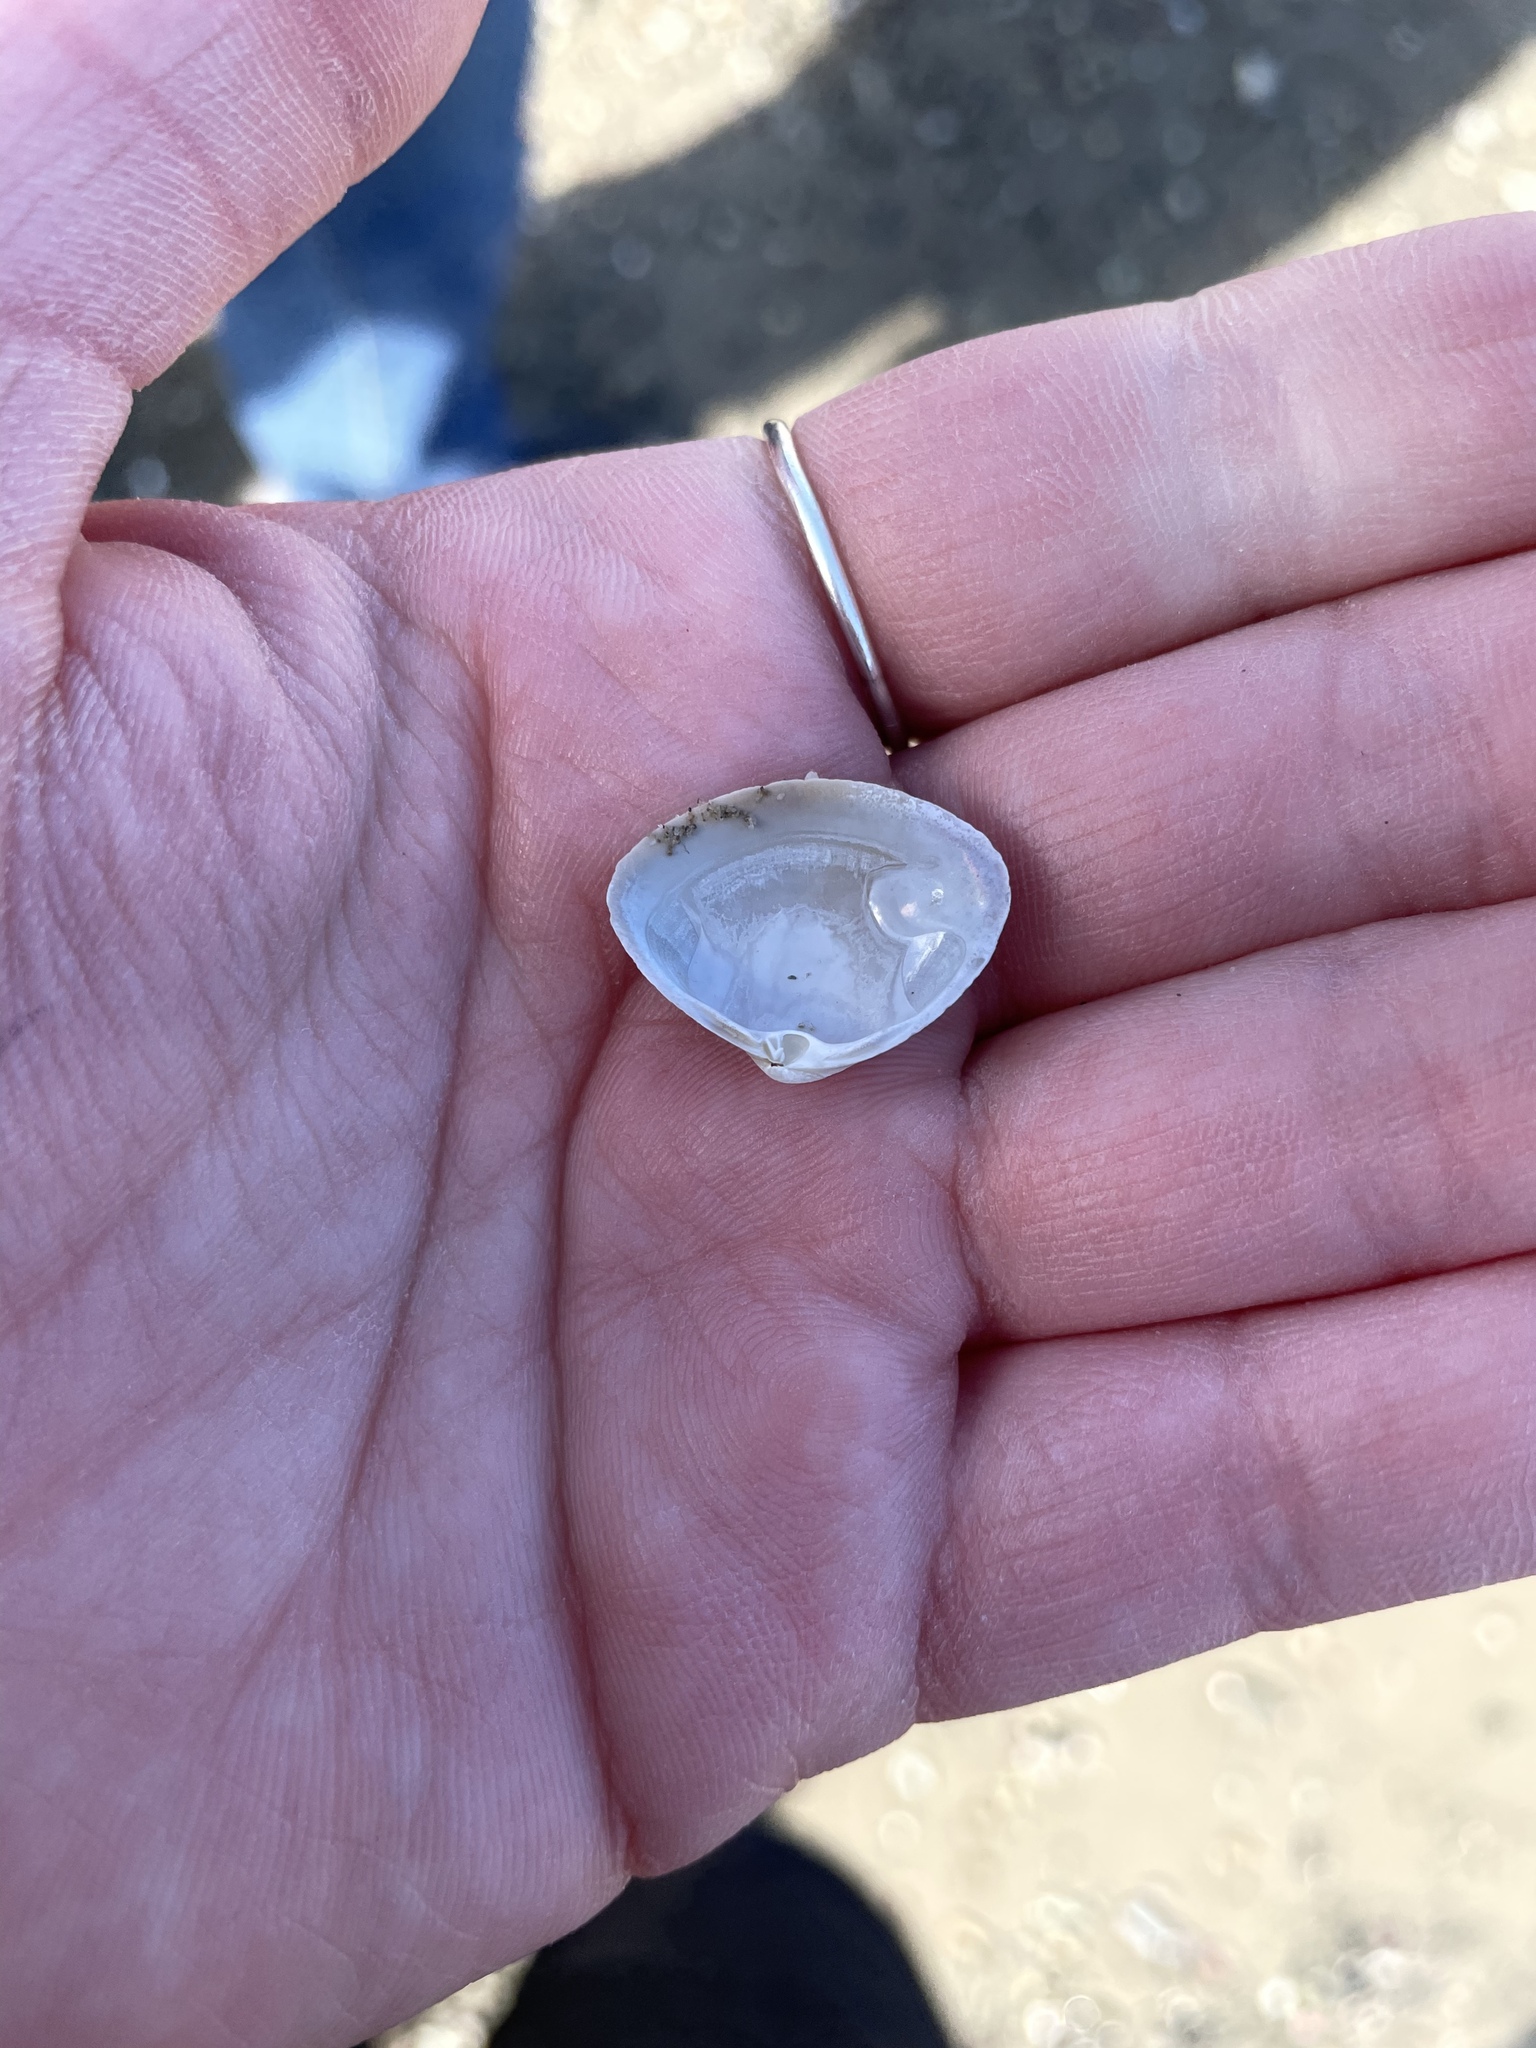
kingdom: Animalia
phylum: Mollusca
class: Bivalvia
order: Venerida
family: Mactridae
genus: Spisula
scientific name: Spisula solidissima
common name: Atlantic surf clam
